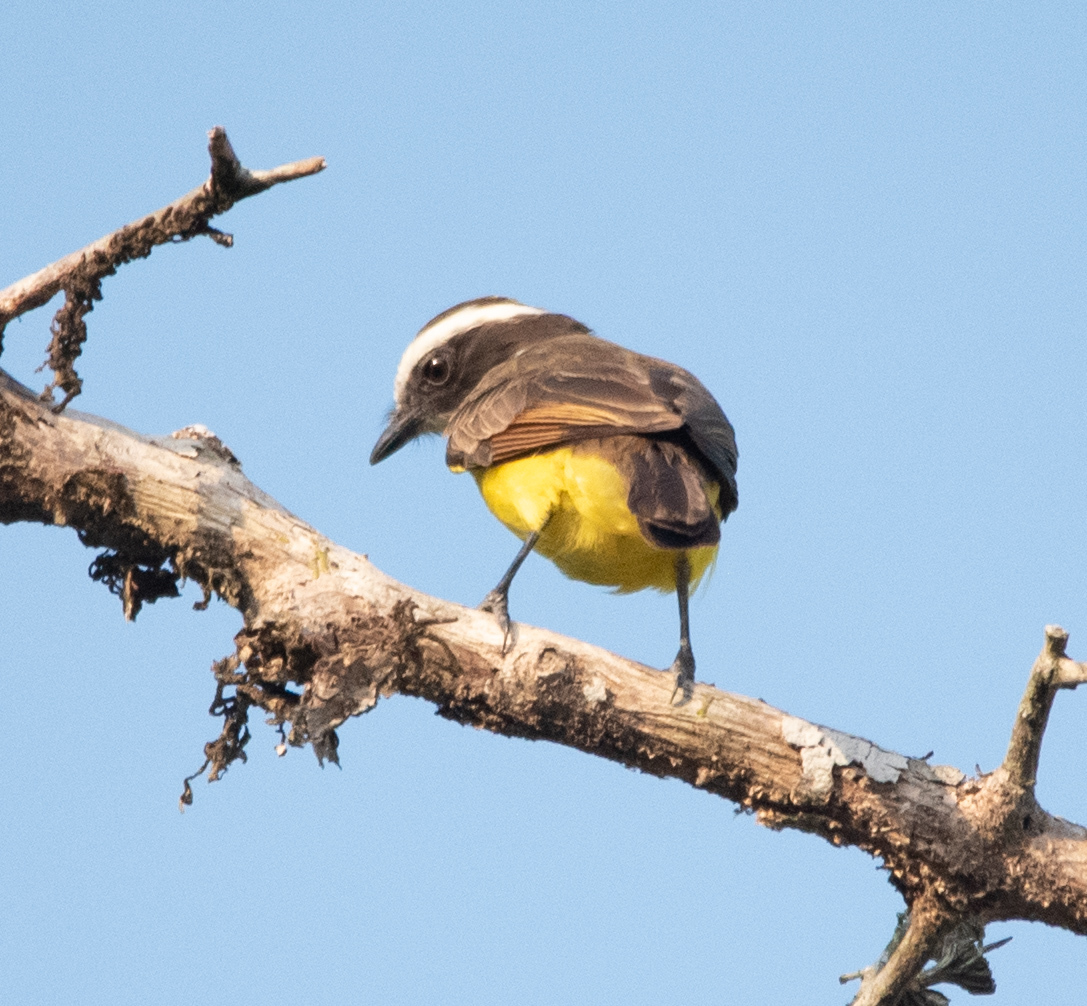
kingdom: Animalia
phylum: Chordata
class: Aves
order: Passeriformes
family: Tyrannidae
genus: Myiozetetes
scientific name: Myiozetetes similis
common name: Social flycatcher
